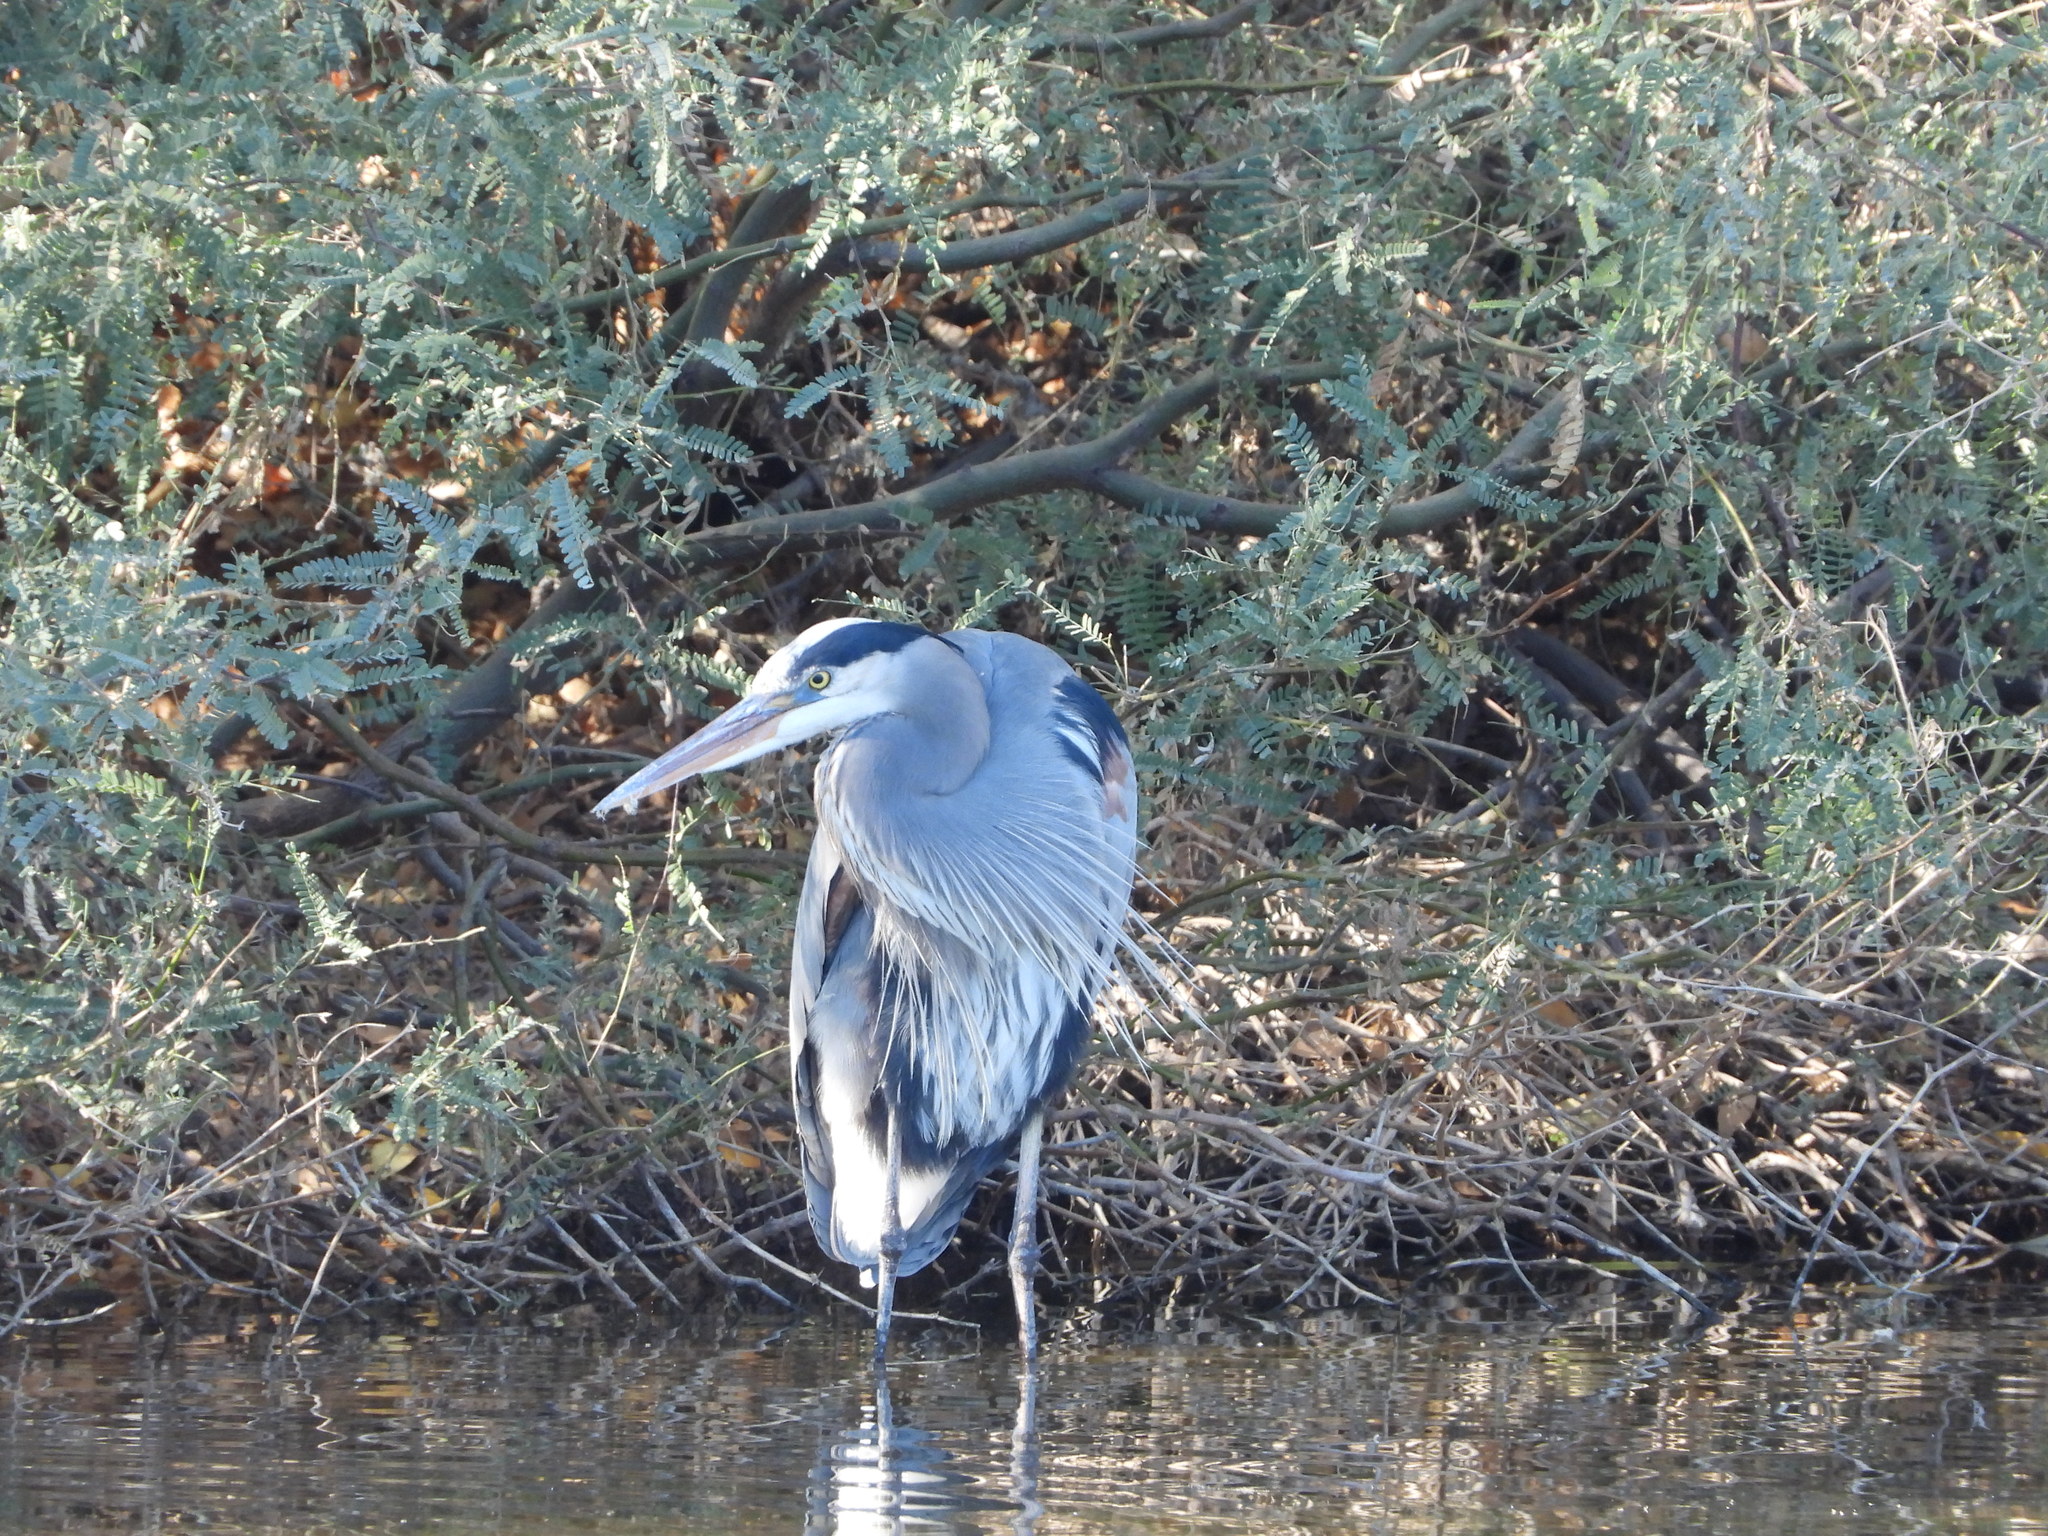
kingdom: Animalia
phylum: Chordata
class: Aves
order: Pelecaniformes
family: Ardeidae
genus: Ardea
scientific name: Ardea herodias
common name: Great blue heron
